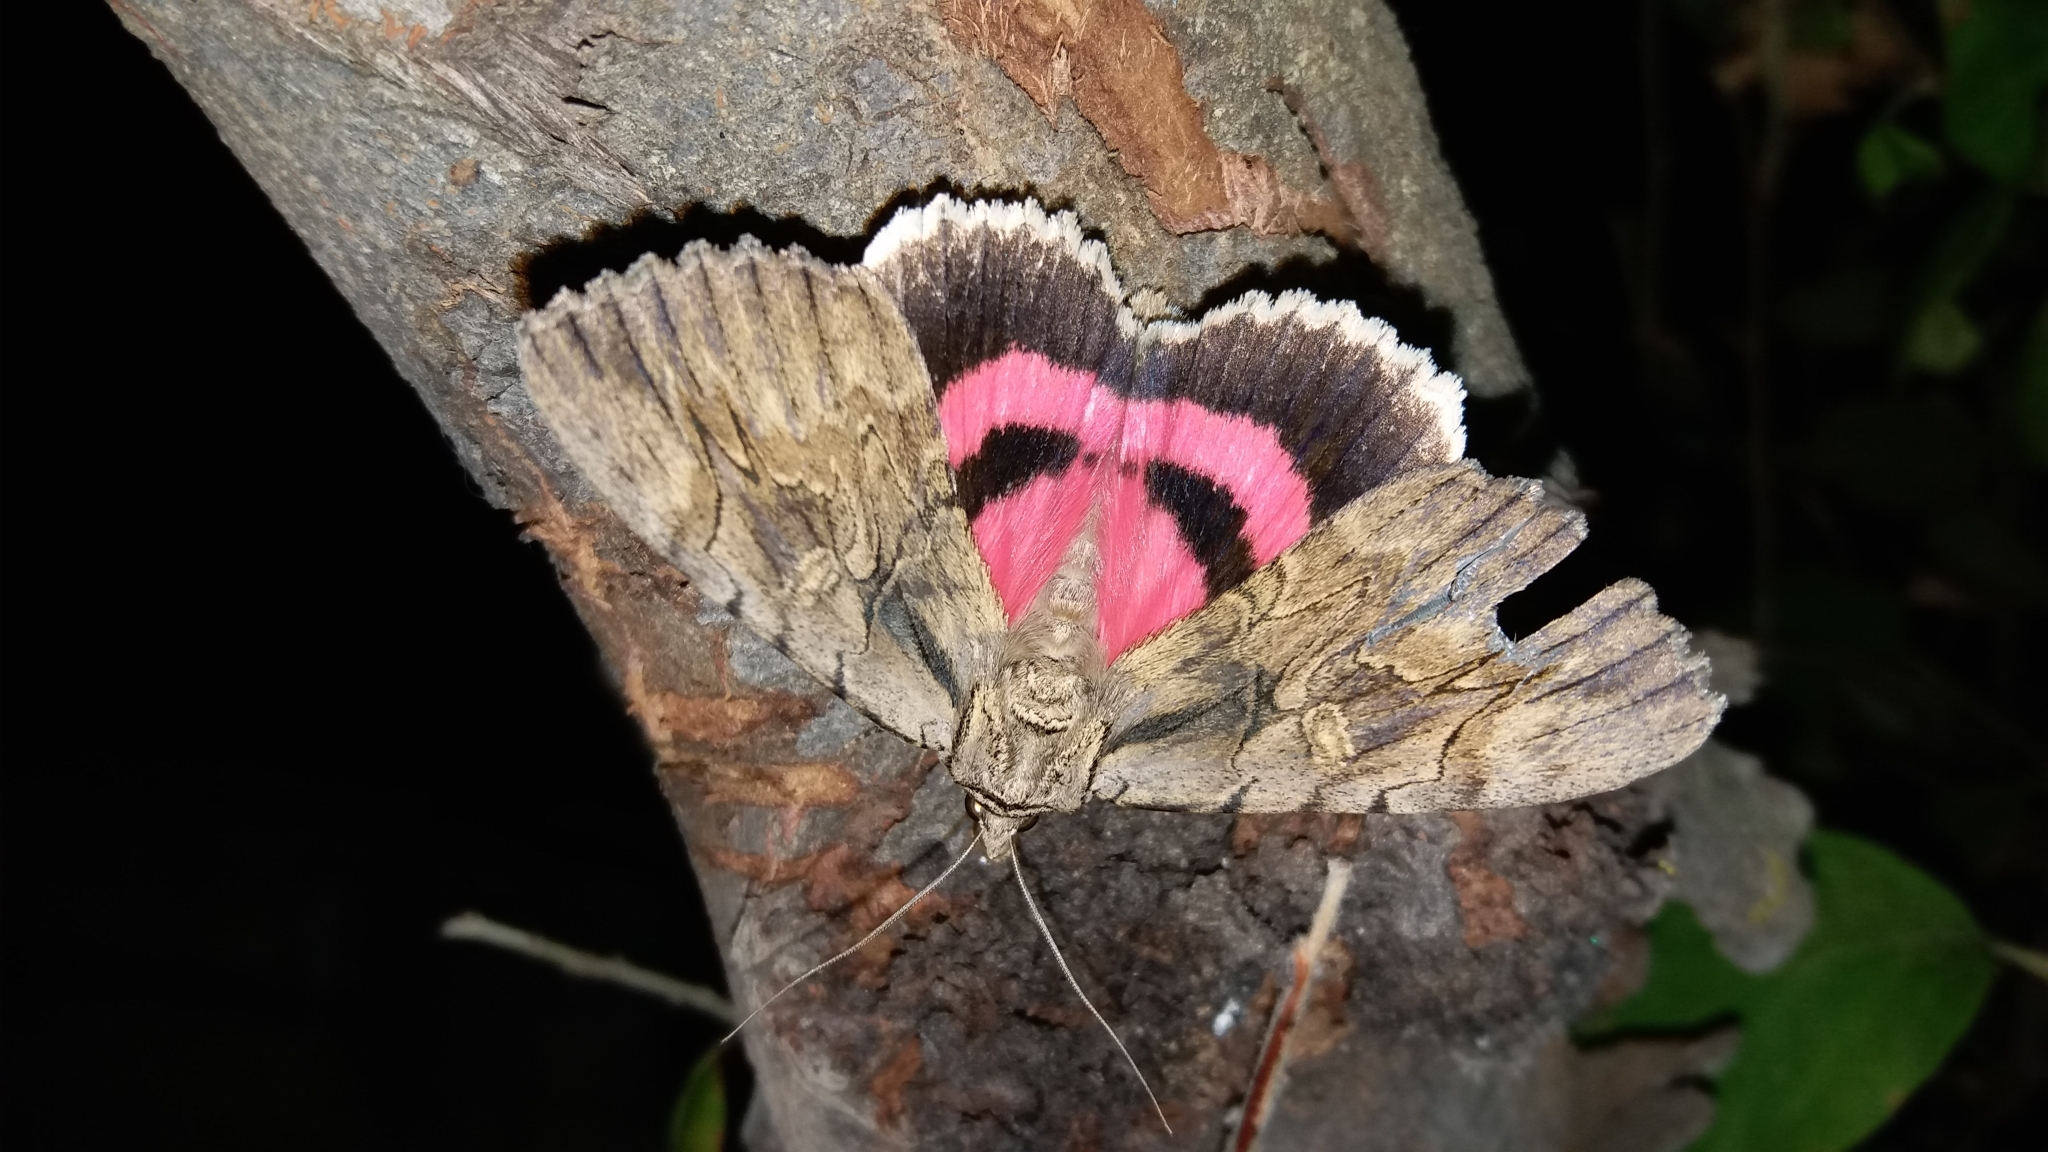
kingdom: Animalia
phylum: Arthropoda
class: Insecta
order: Lepidoptera
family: Erebidae
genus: Catocala
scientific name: Catocala optata
